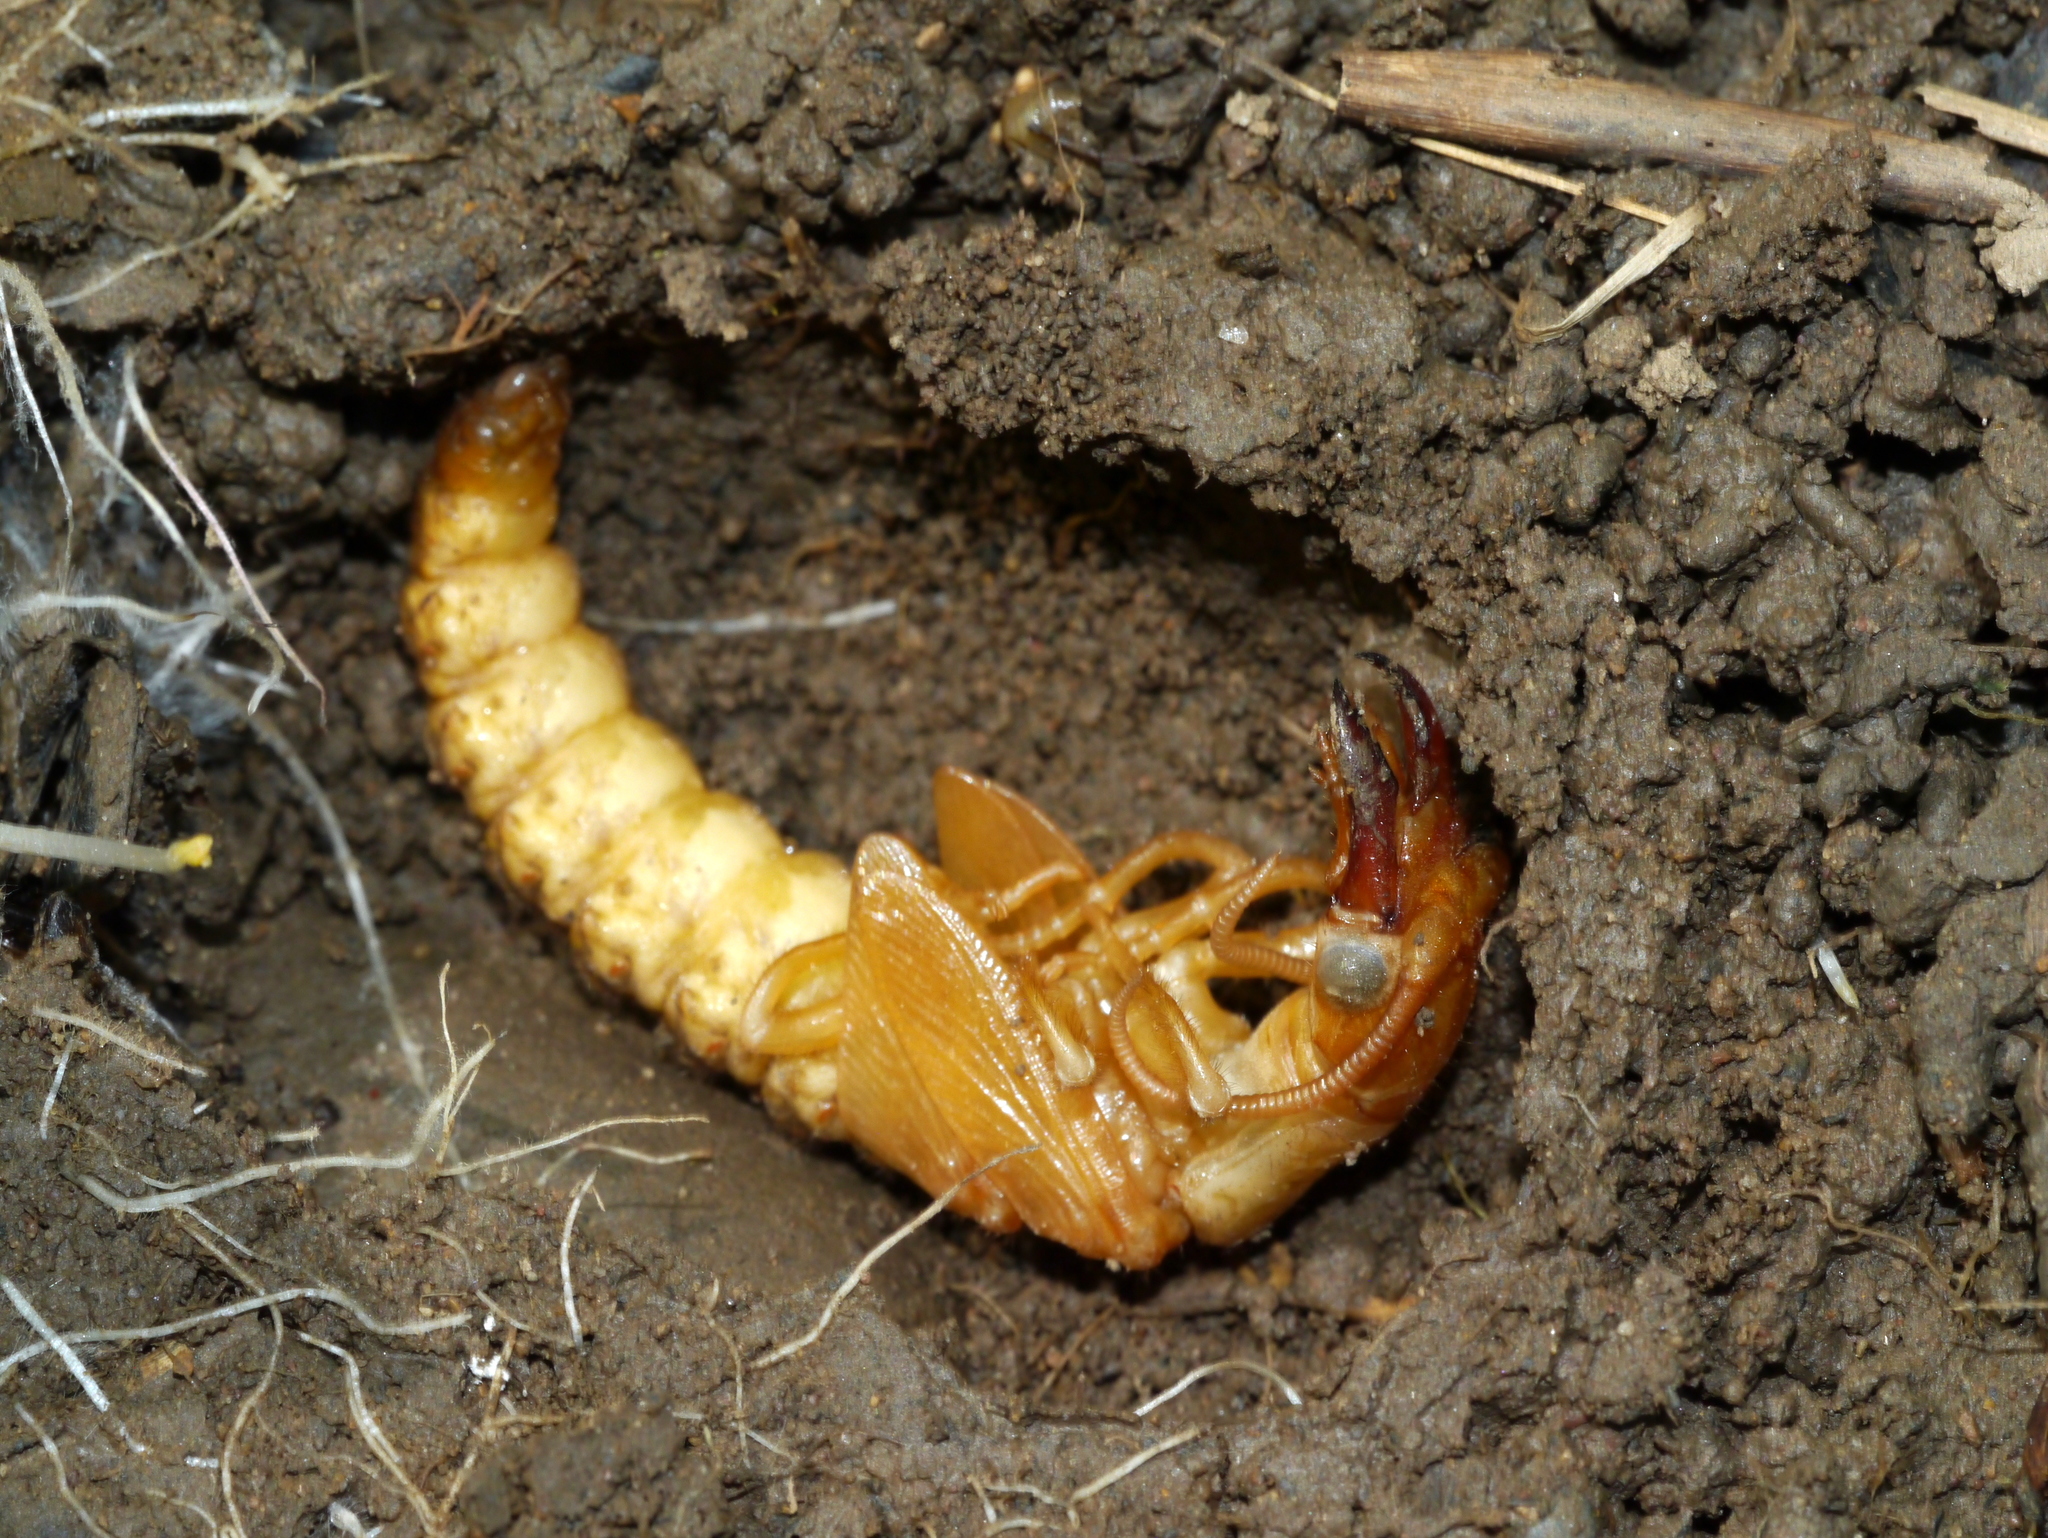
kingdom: Animalia
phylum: Arthropoda
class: Insecta
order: Megaloptera
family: Corydalidae
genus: Corydalus
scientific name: Corydalus cornutus
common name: Dobsonfly
